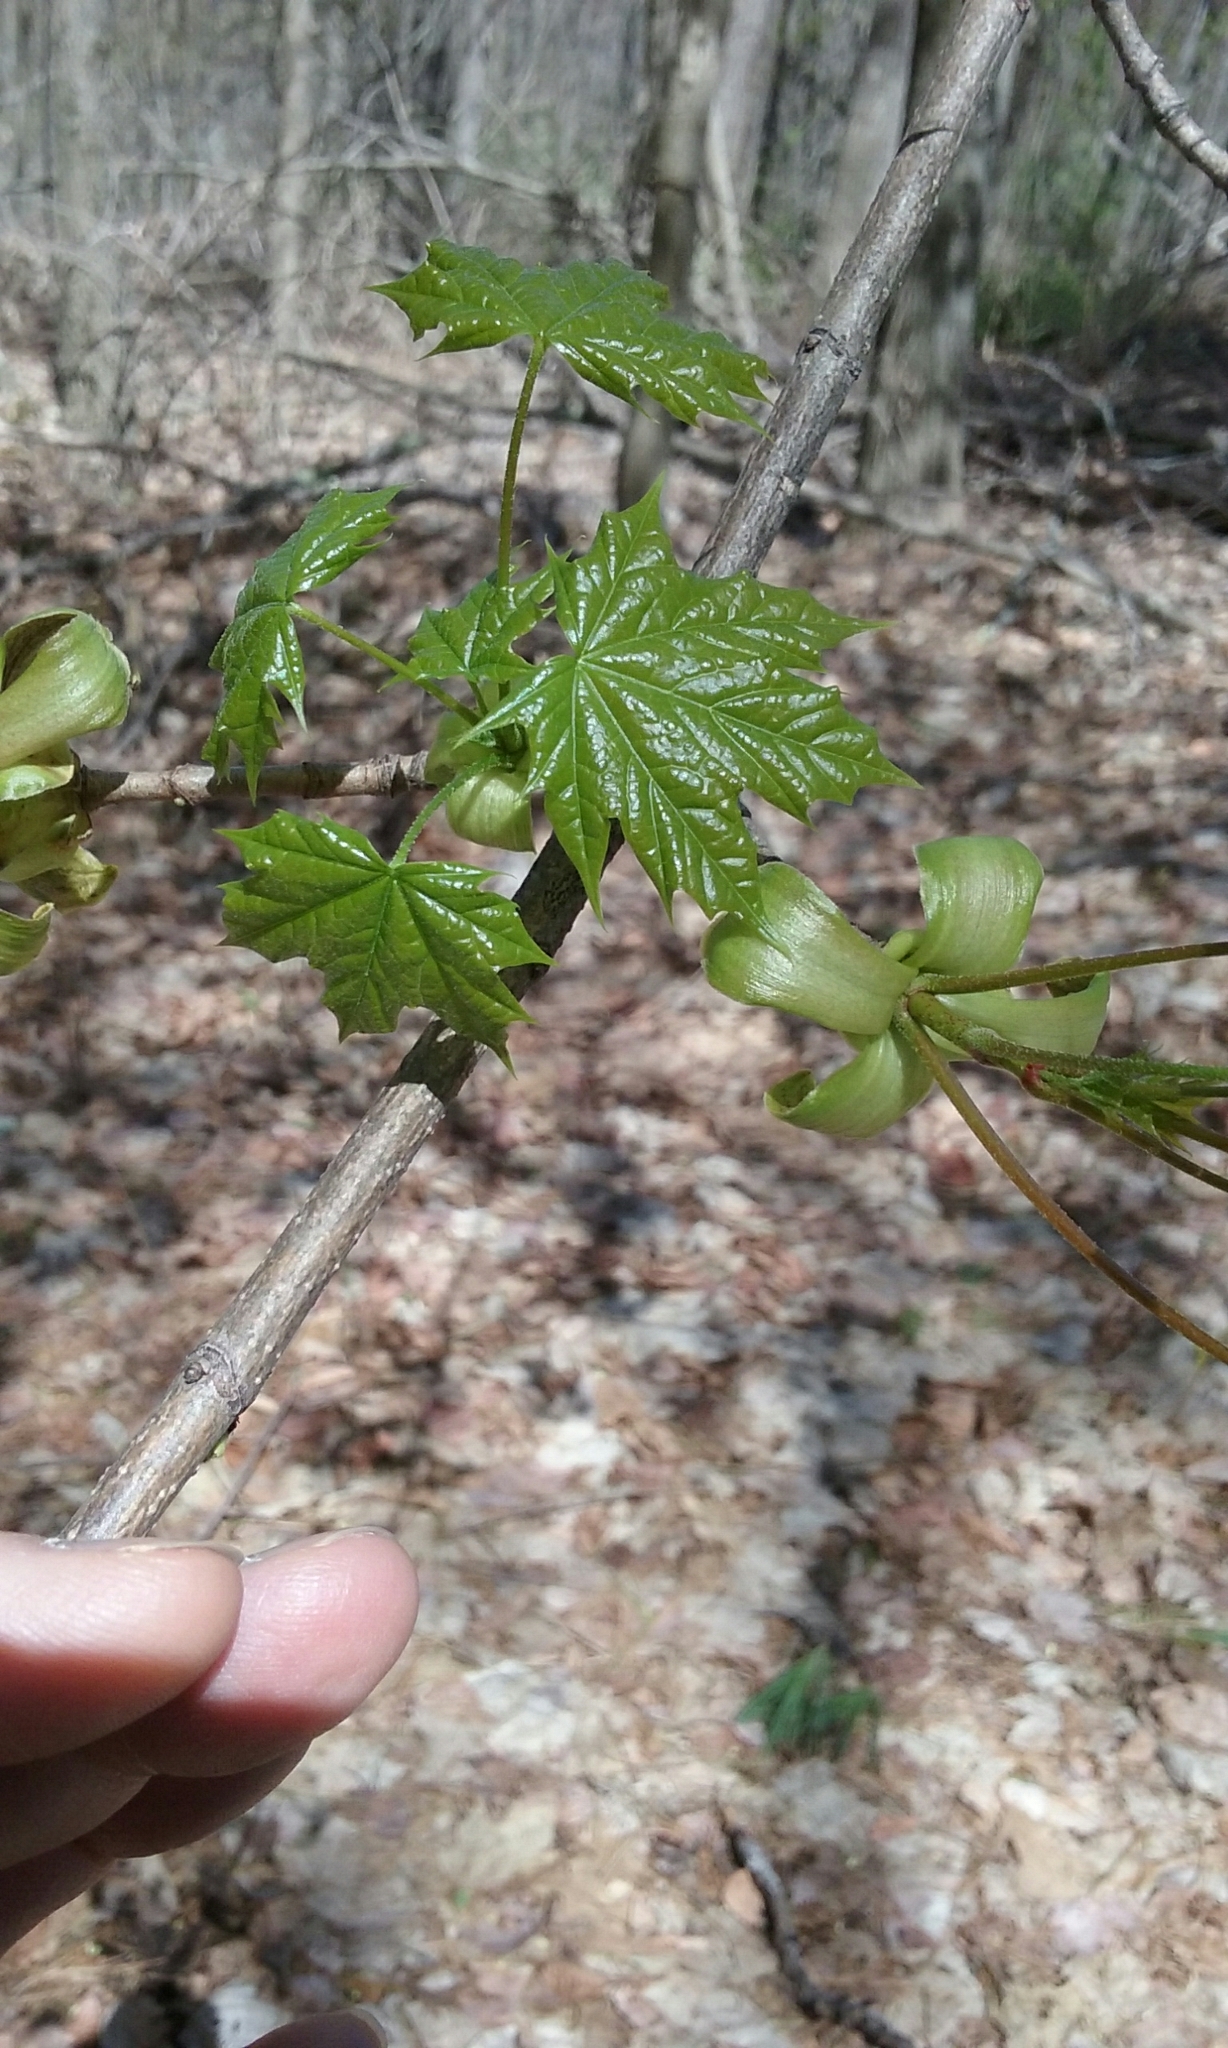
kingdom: Plantae
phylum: Tracheophyta
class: Magnoliopsida
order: Sapindales
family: Sapindaceae
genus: Acer
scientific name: Acer platanoides
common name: Norway maple
